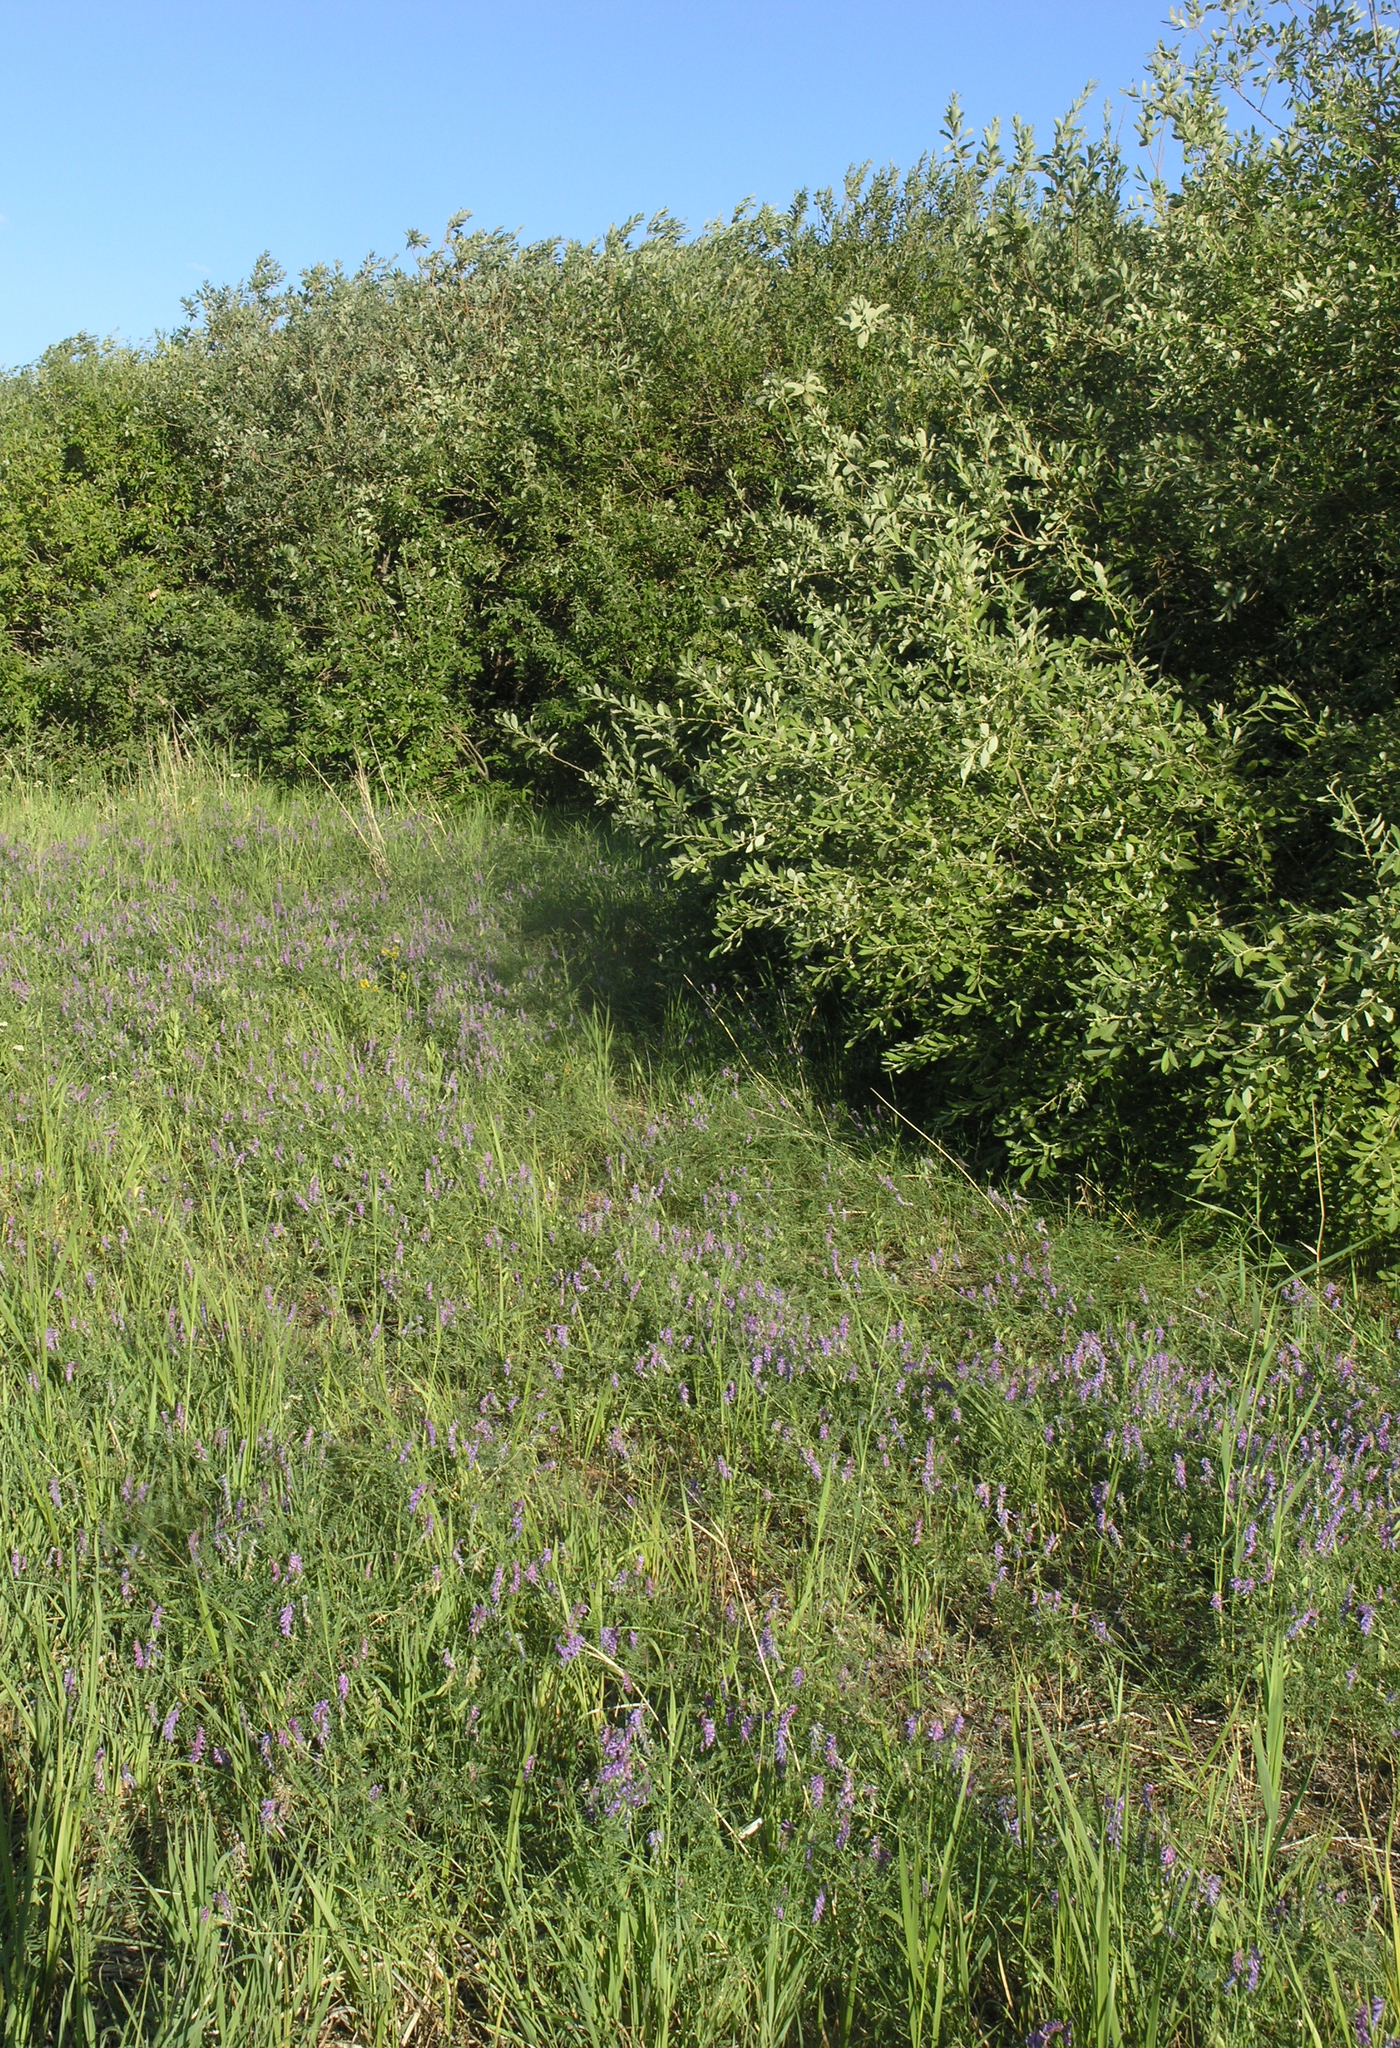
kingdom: Plantae
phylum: Tracheophyta
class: Magnoliopsida
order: Malpighiales
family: Salicaceae
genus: Salix
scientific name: Salix cinerea
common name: Common sallow
